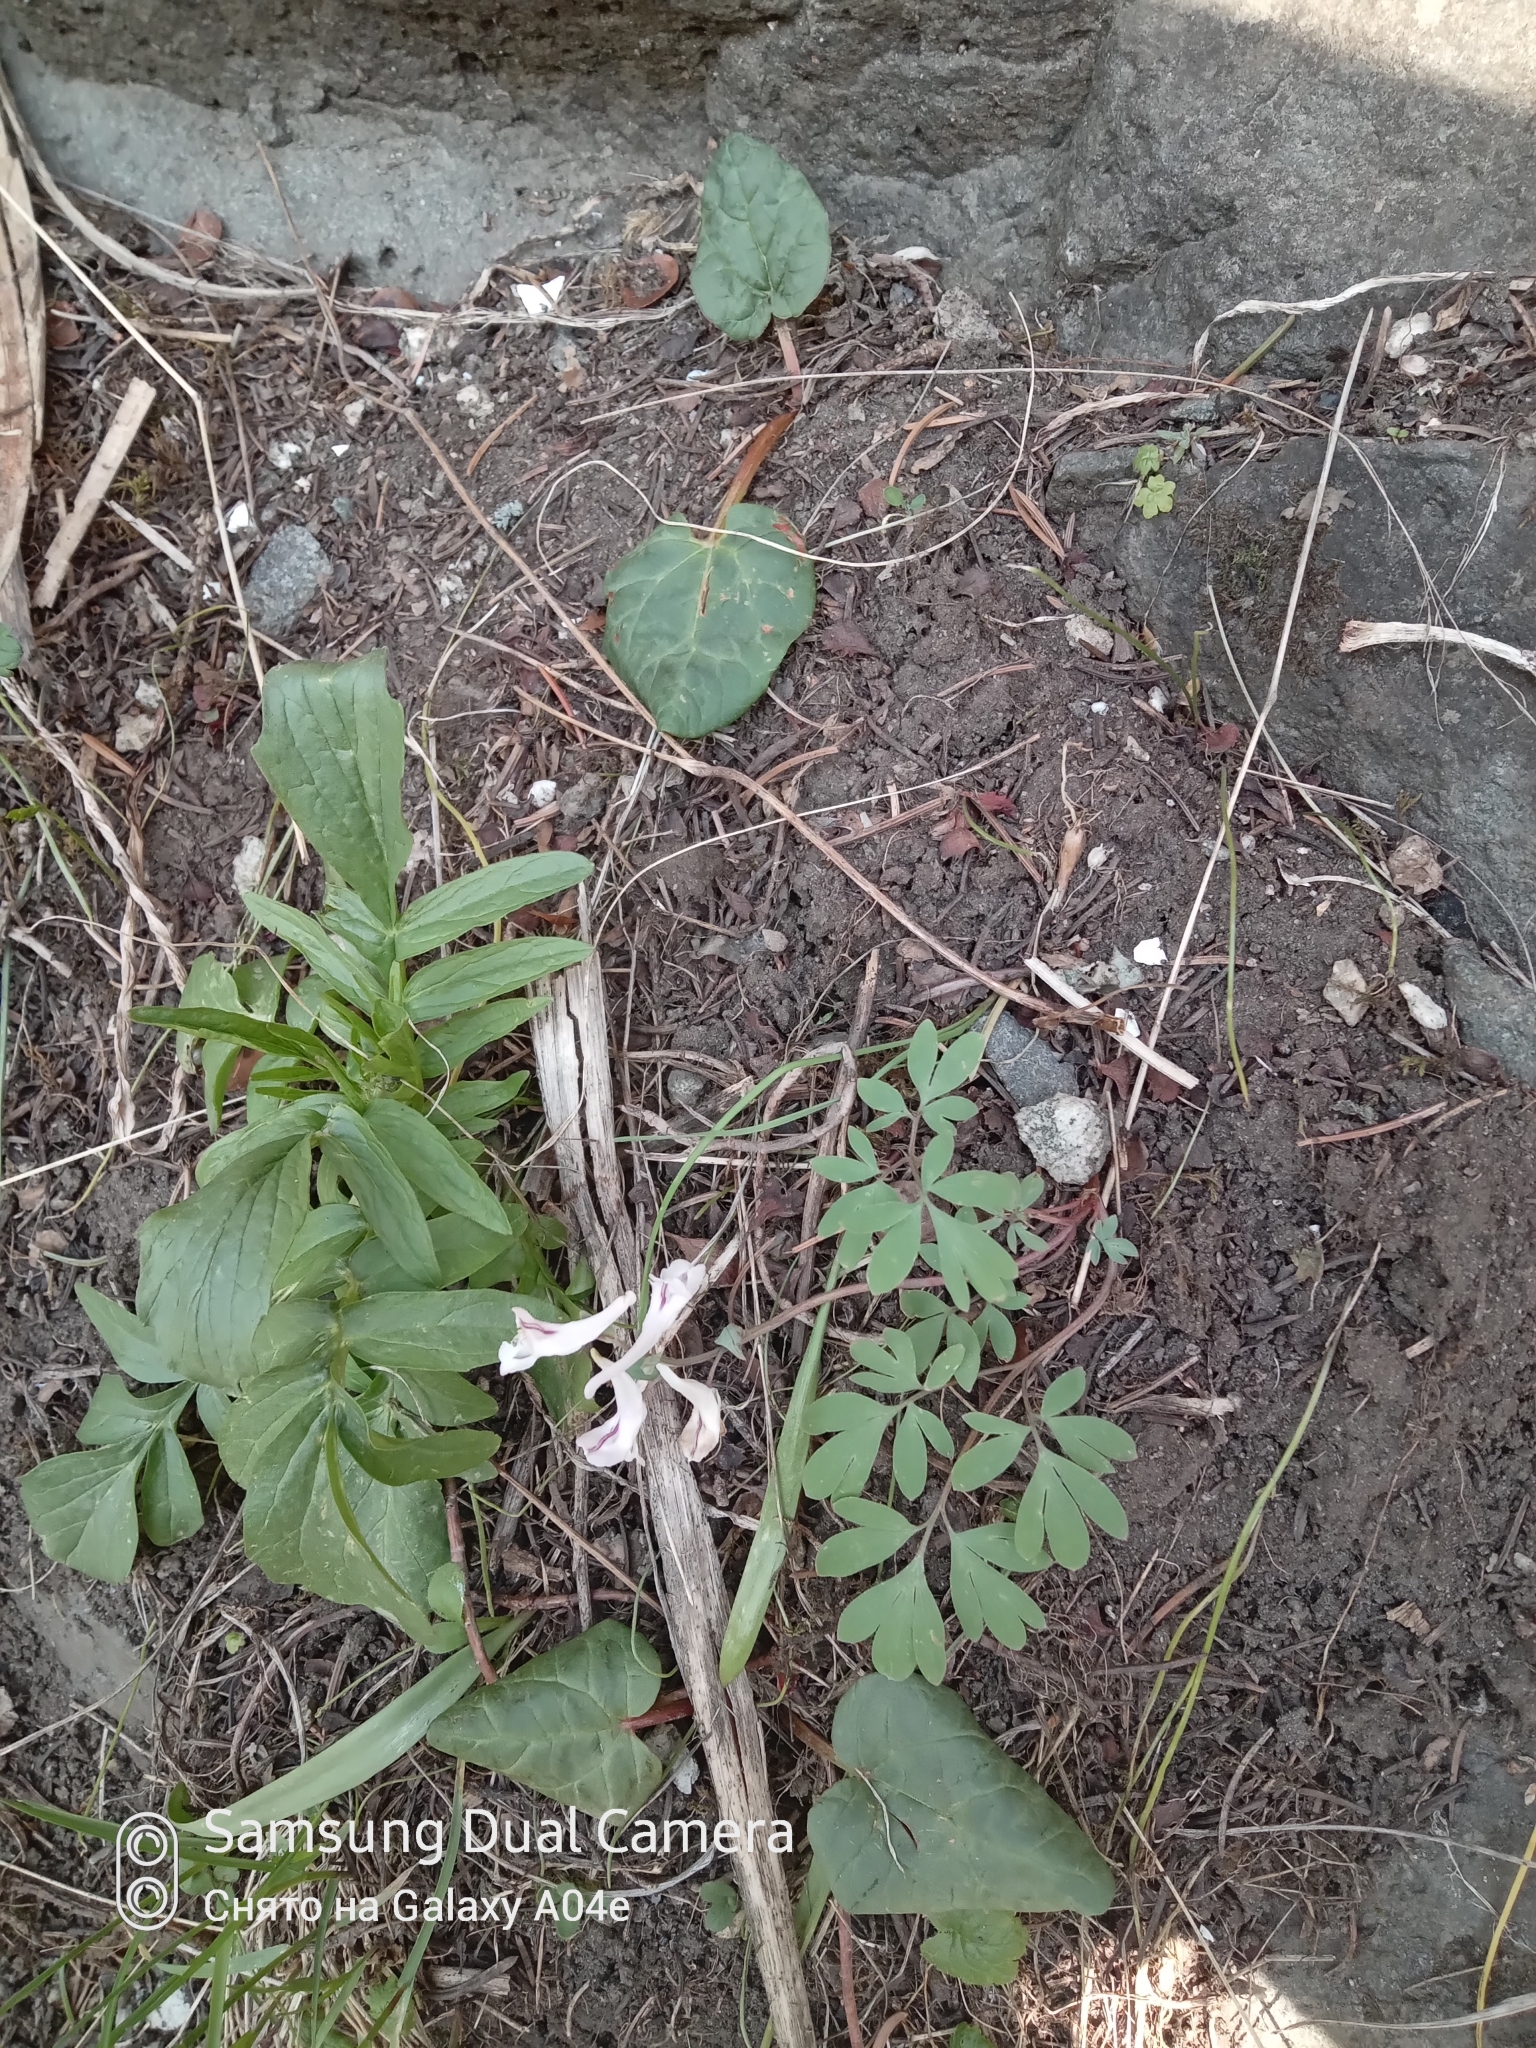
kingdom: Plantae
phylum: Tracheophyta
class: Magnoliopsida
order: Ranunculales
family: Papaveraceae
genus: Corydalis
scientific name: Corydalis glaucescens
